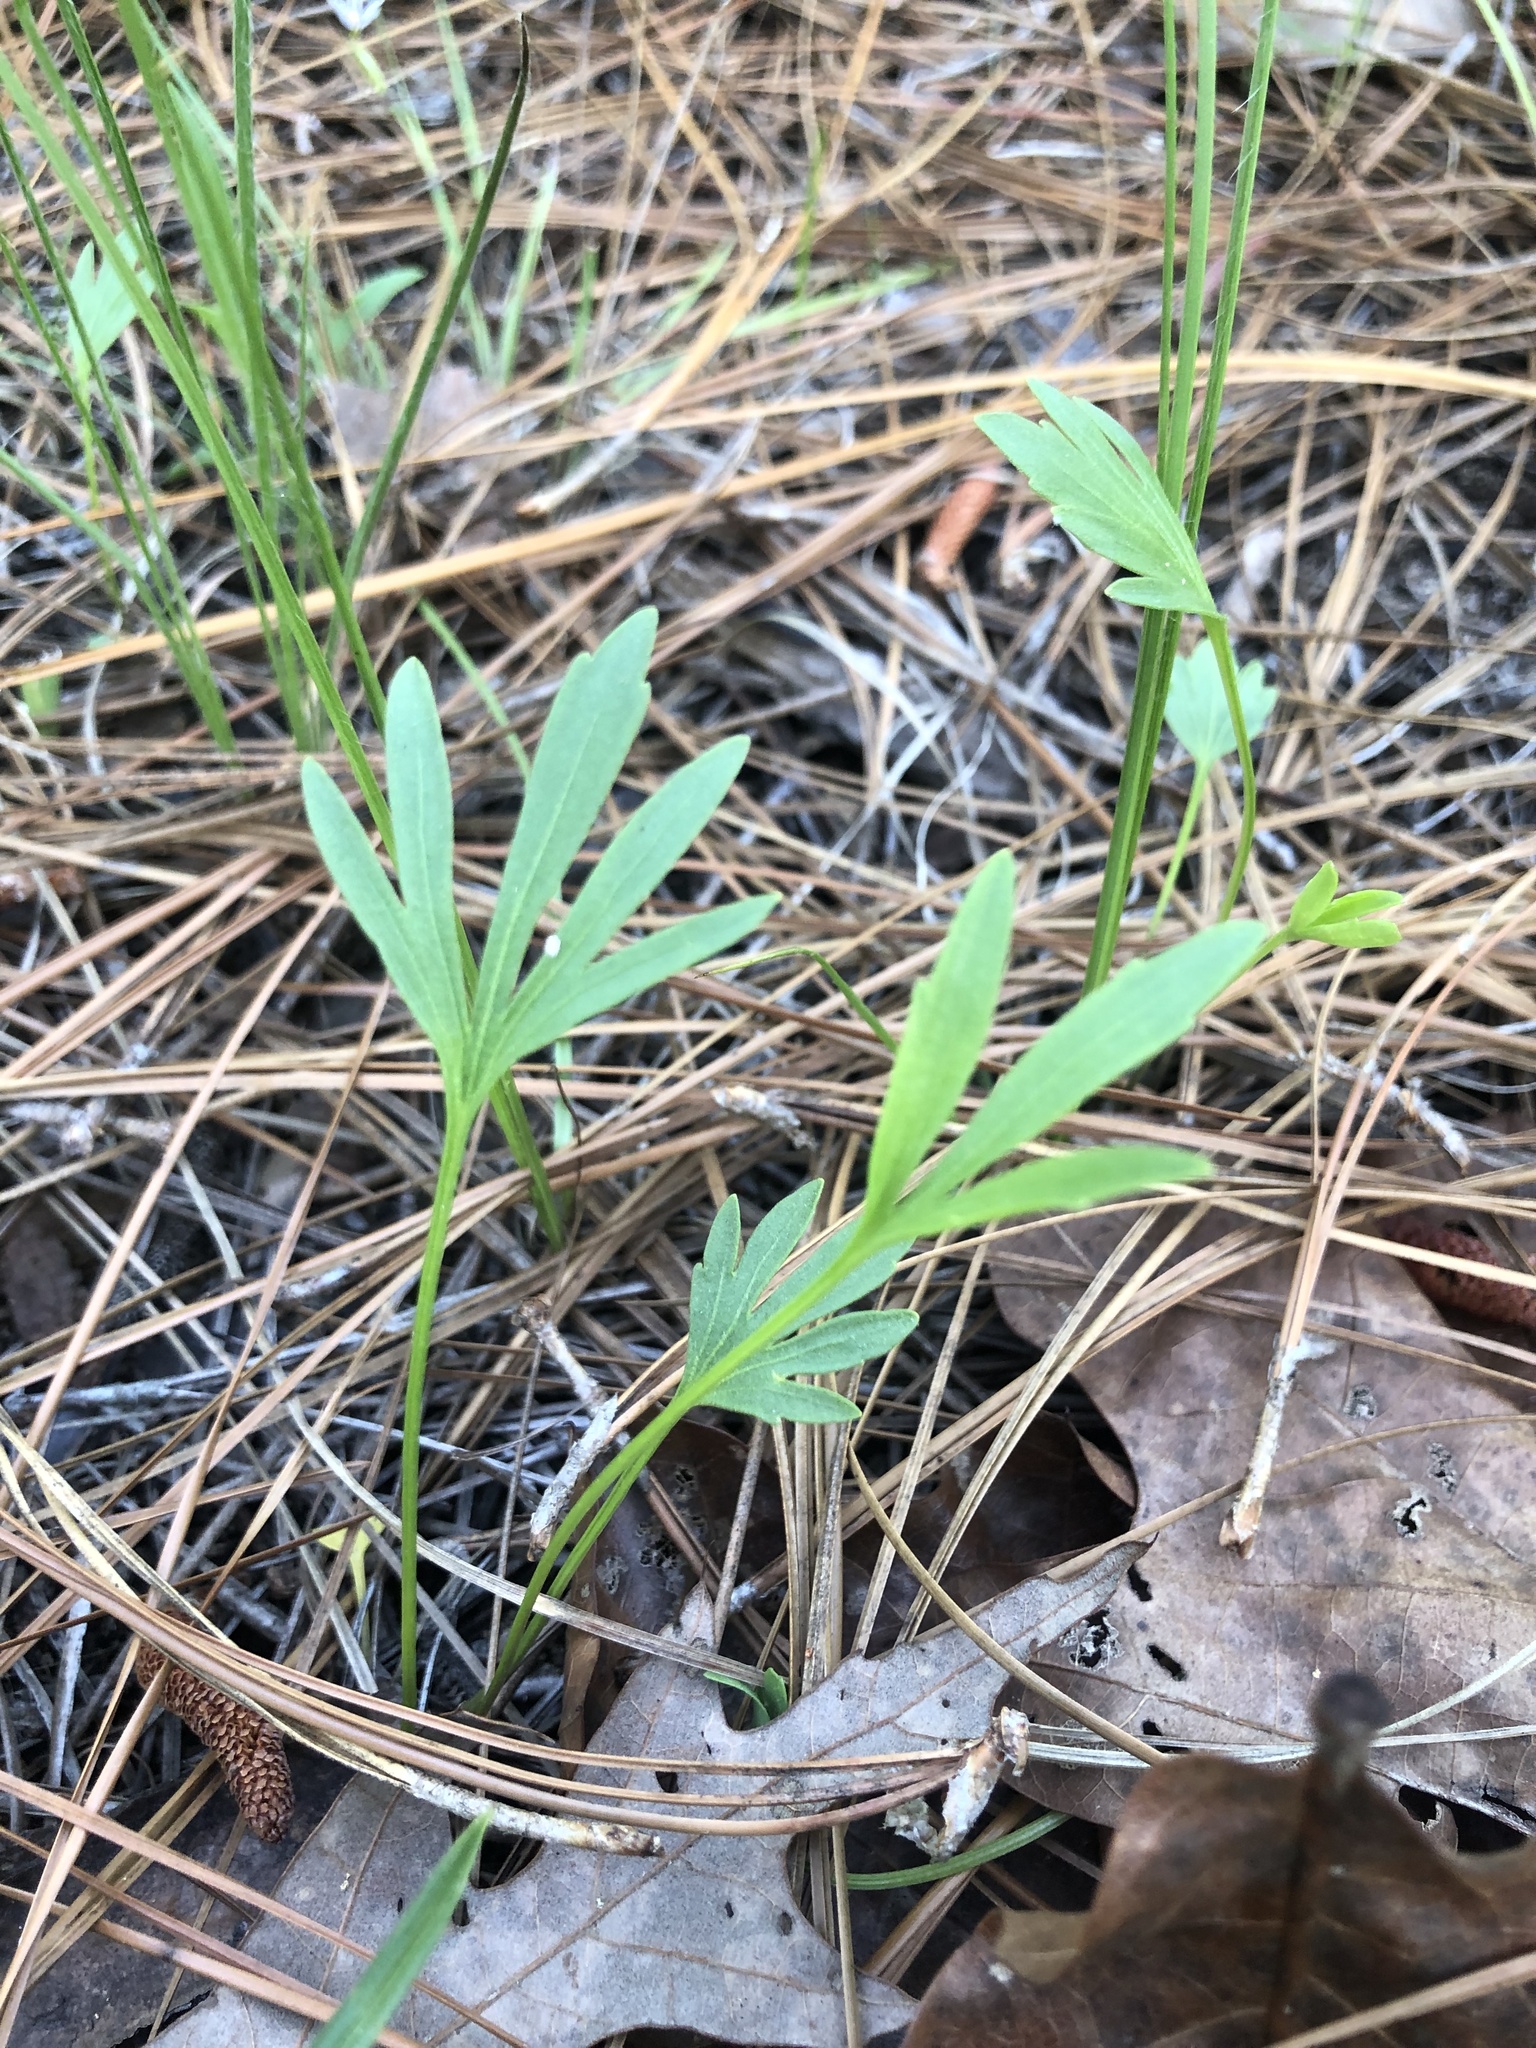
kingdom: Plantae
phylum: Tracheophyta
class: Magnoliopsida
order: Malpighiales
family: Violaceae
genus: Viola
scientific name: Viola pedata
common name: Pansy violet
